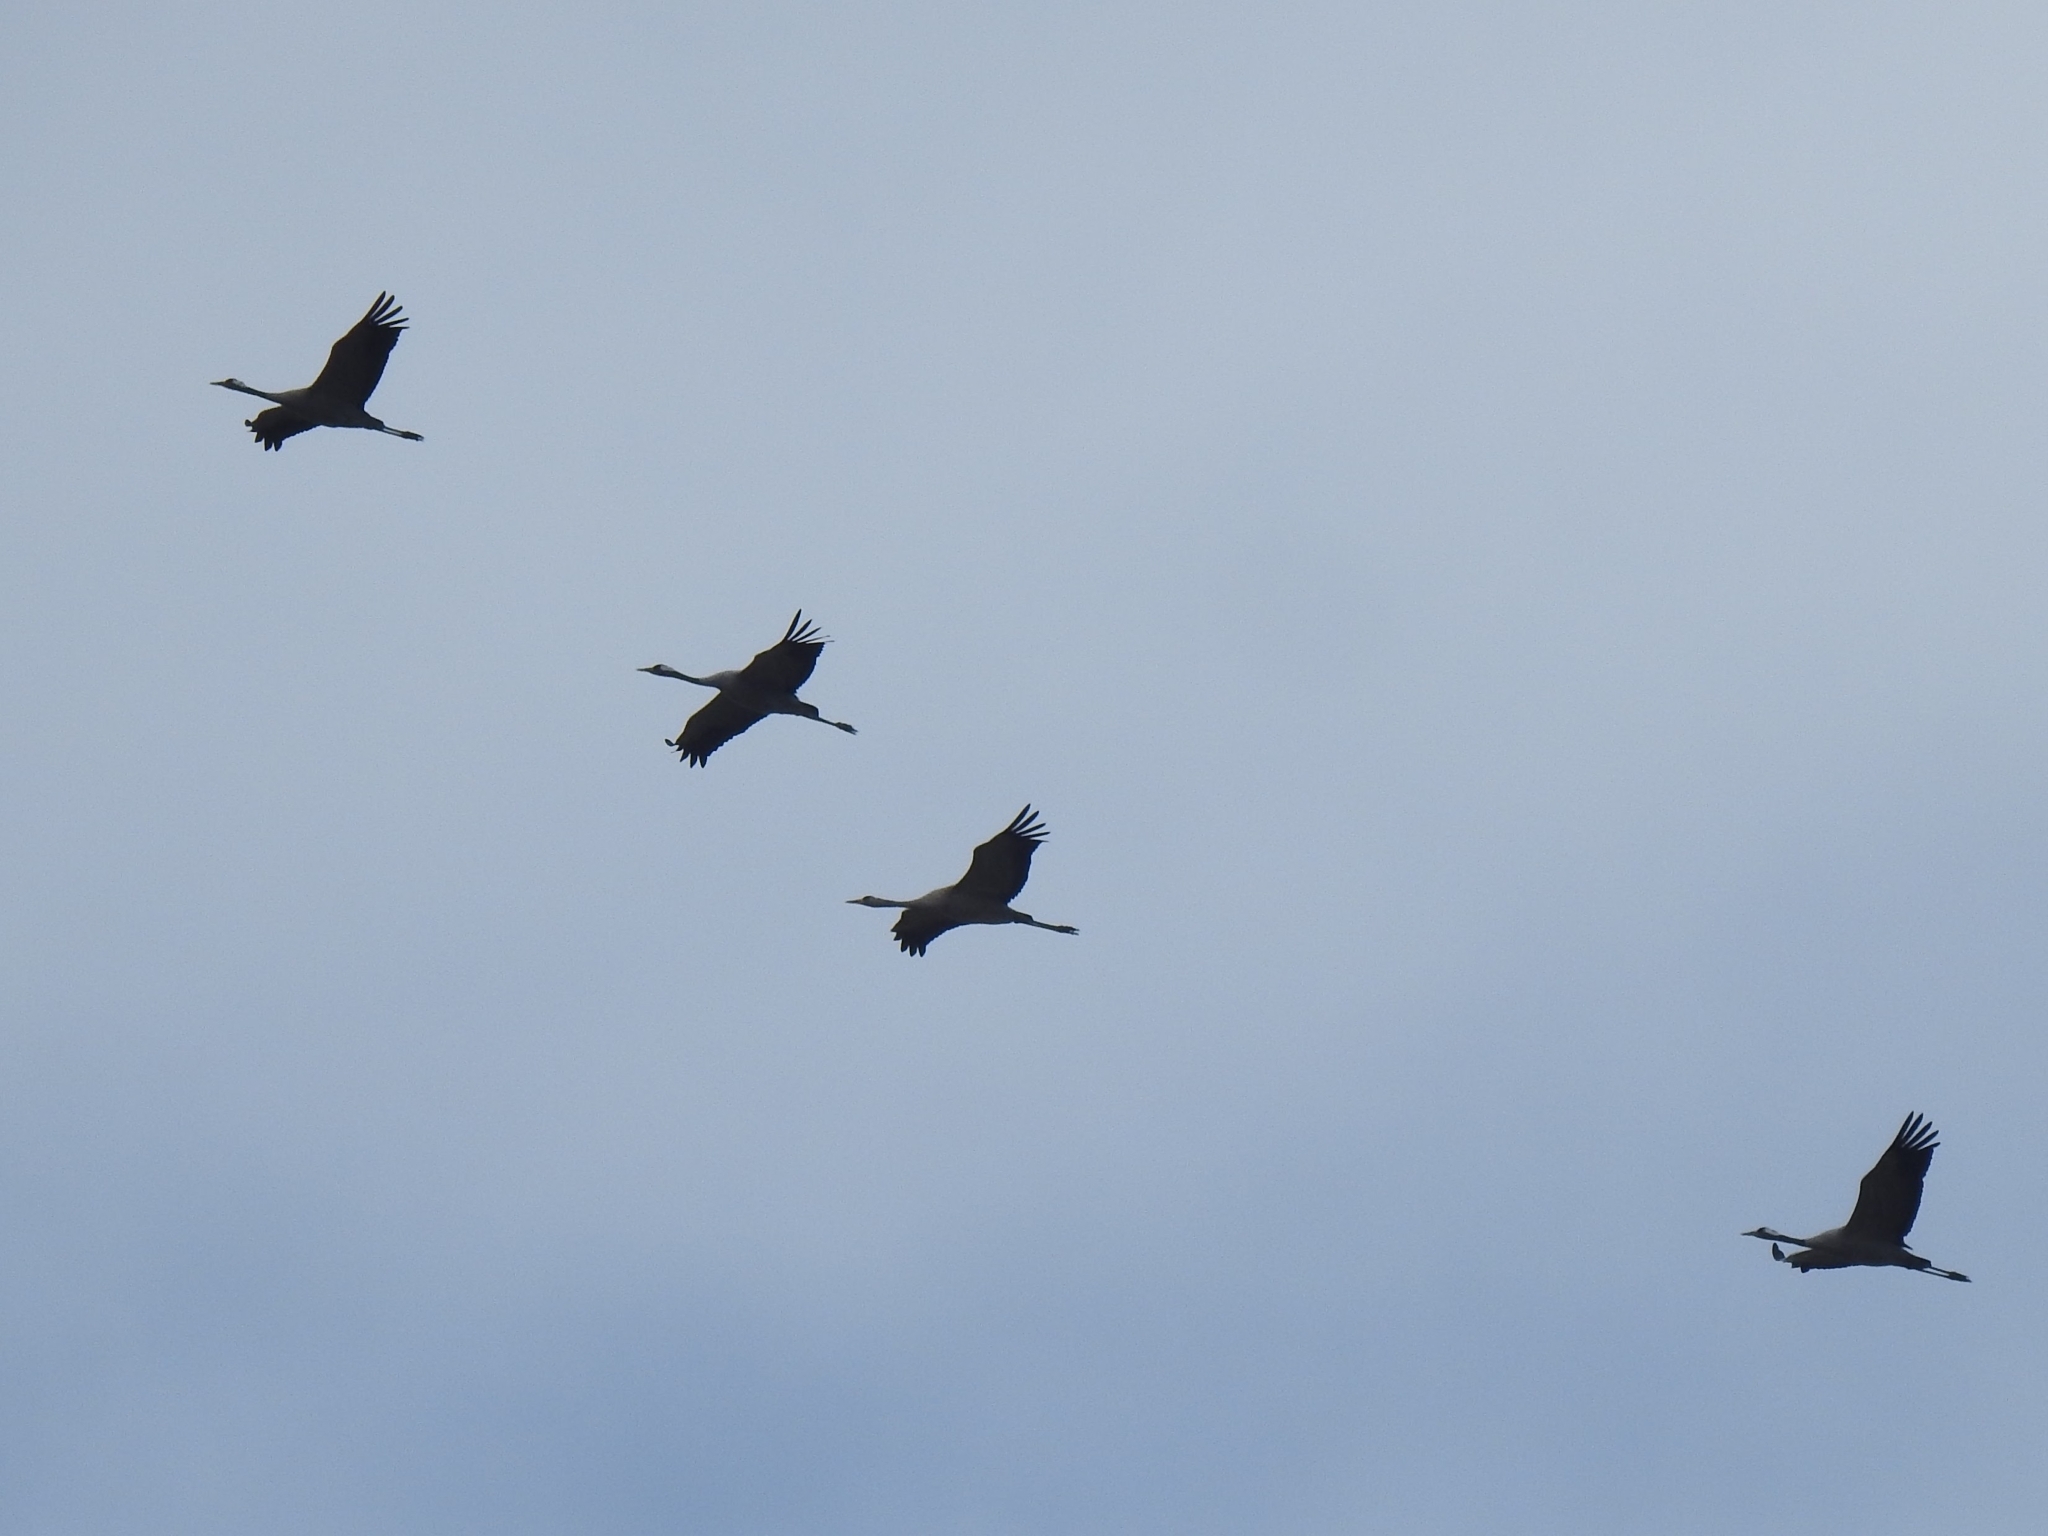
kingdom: Animalia
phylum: Chordata
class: Aves
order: Gruiformes
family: Gruidae
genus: Grus
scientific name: Grus grus
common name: Common crane
